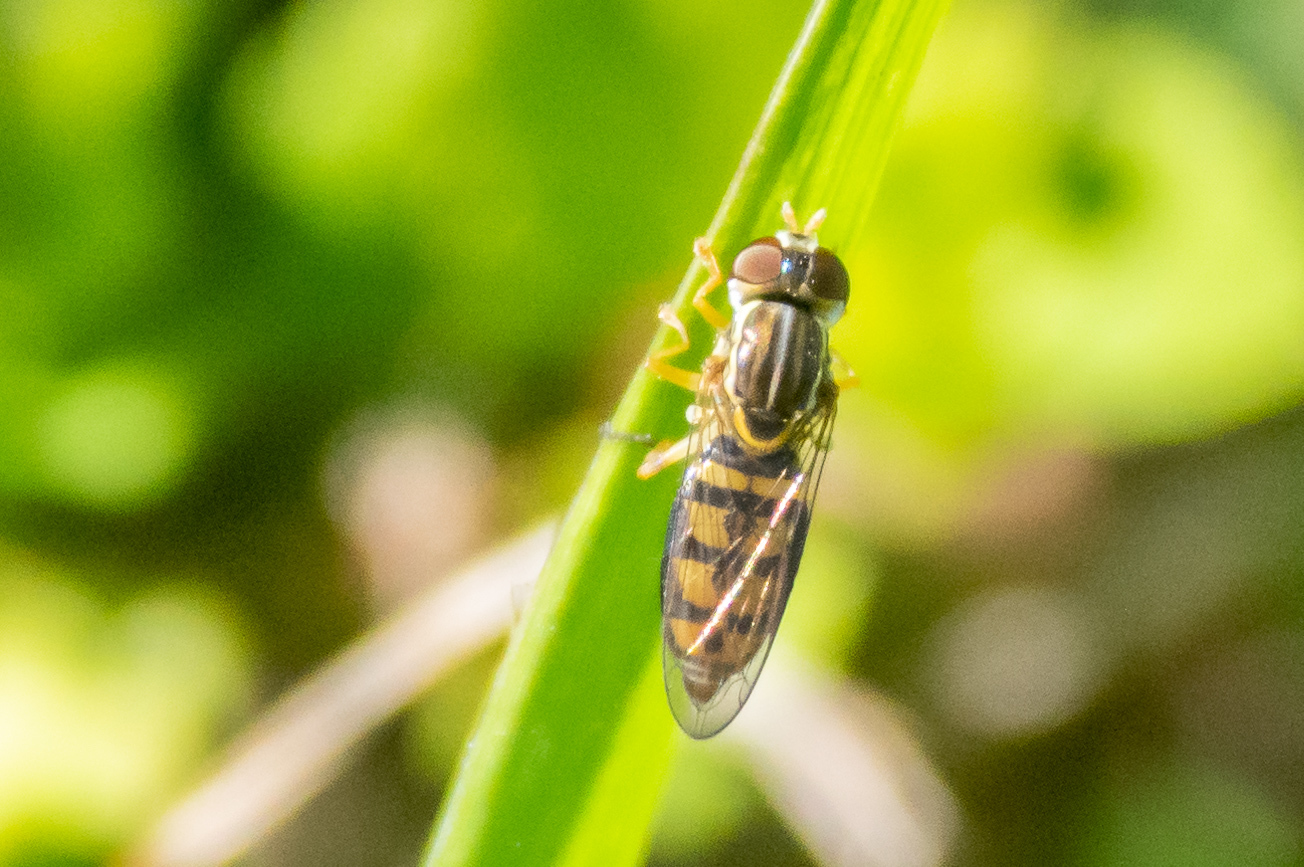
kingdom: Animalia
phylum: Arthropoda
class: Insecta
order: Diptera
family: Syrphidae
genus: Toxomerus
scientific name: Toxomerus floralis
